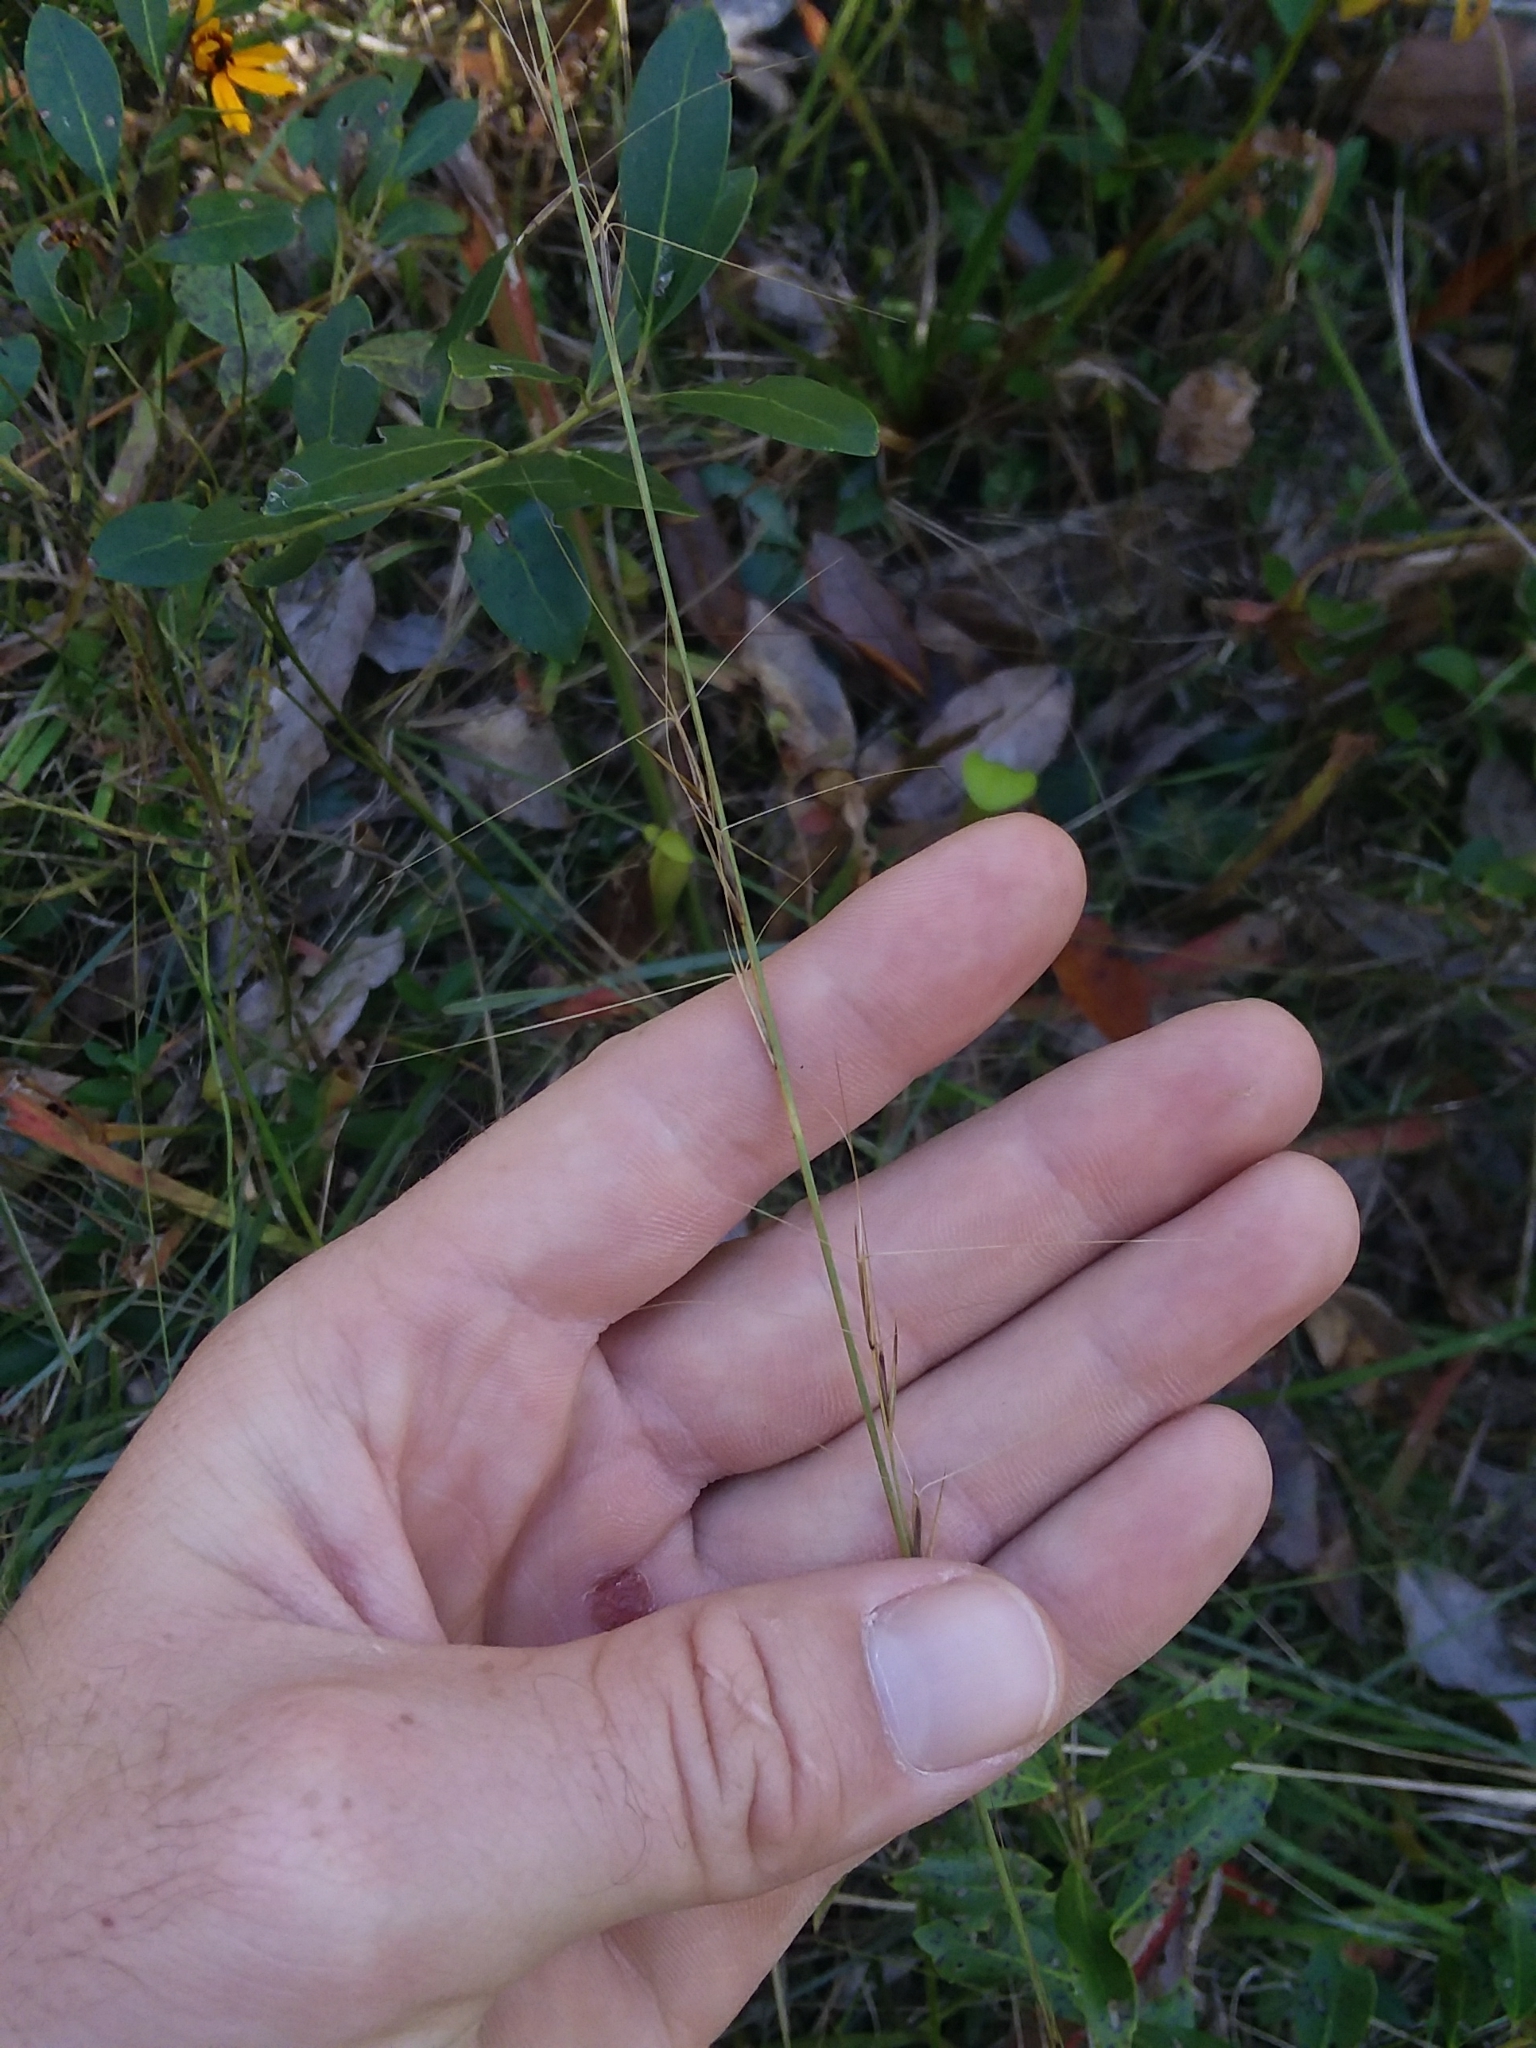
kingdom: Plantae
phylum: Tracheophyta
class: Liliopsida
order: Poales
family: Poaceae
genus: Aristida
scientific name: Aristida palustris
